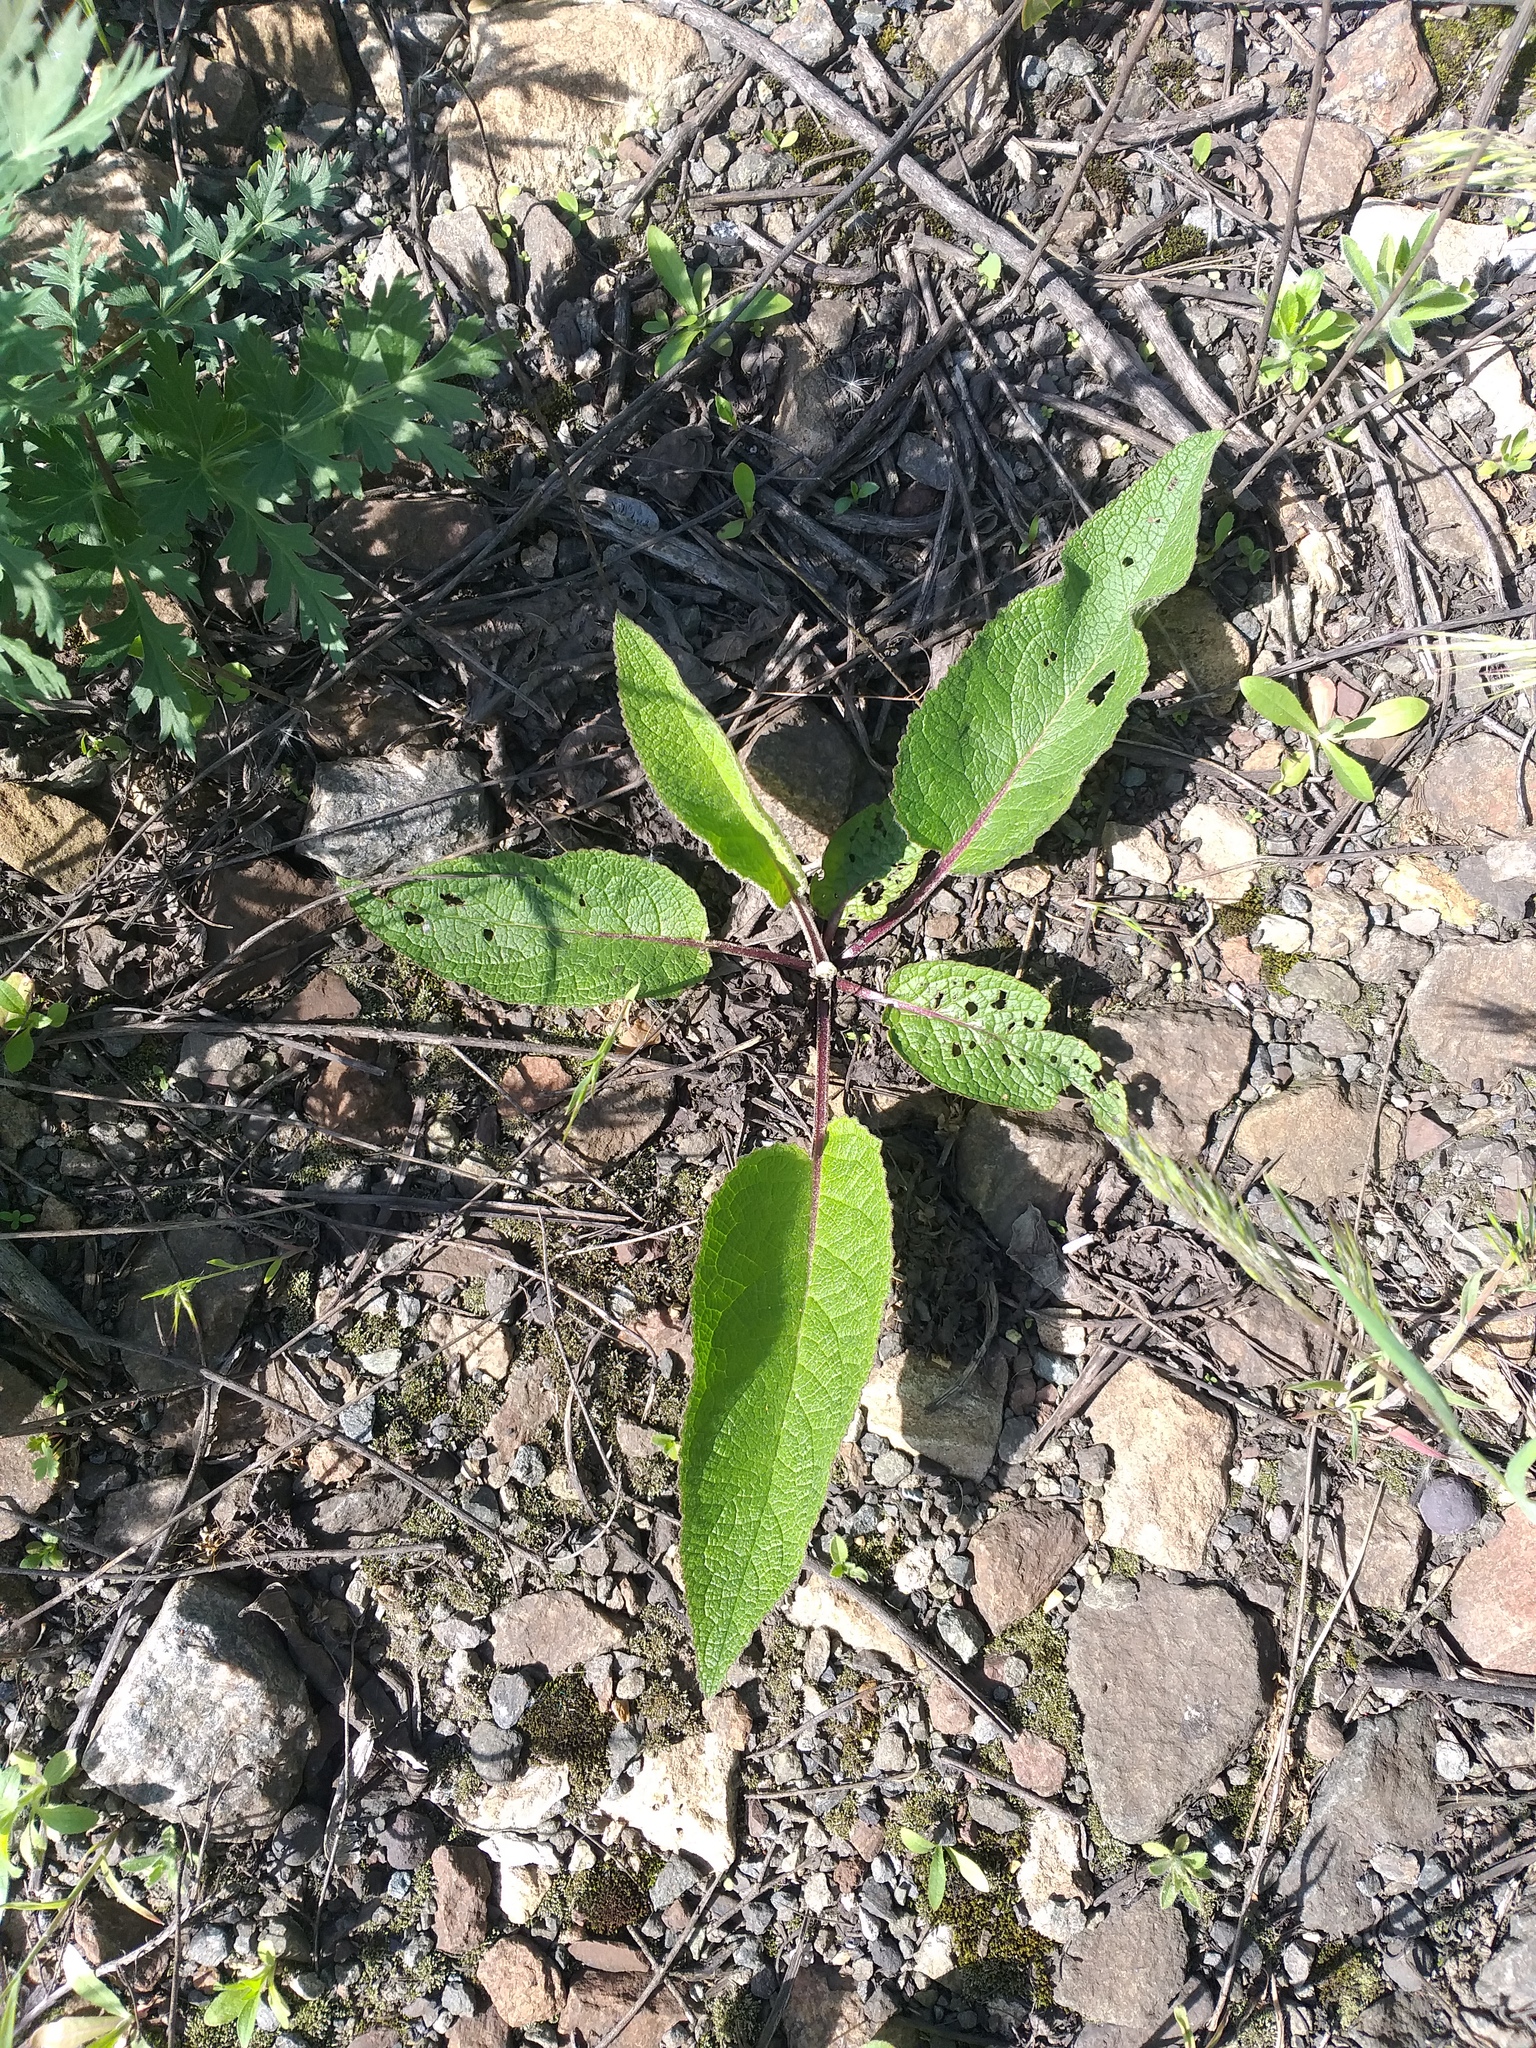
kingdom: Plantae
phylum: Tracheophyta
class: Magnoliopsida
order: Lamiales
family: Scrophulariaceae
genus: Verbascum
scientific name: Verbascum nigrum
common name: Dark mullein
